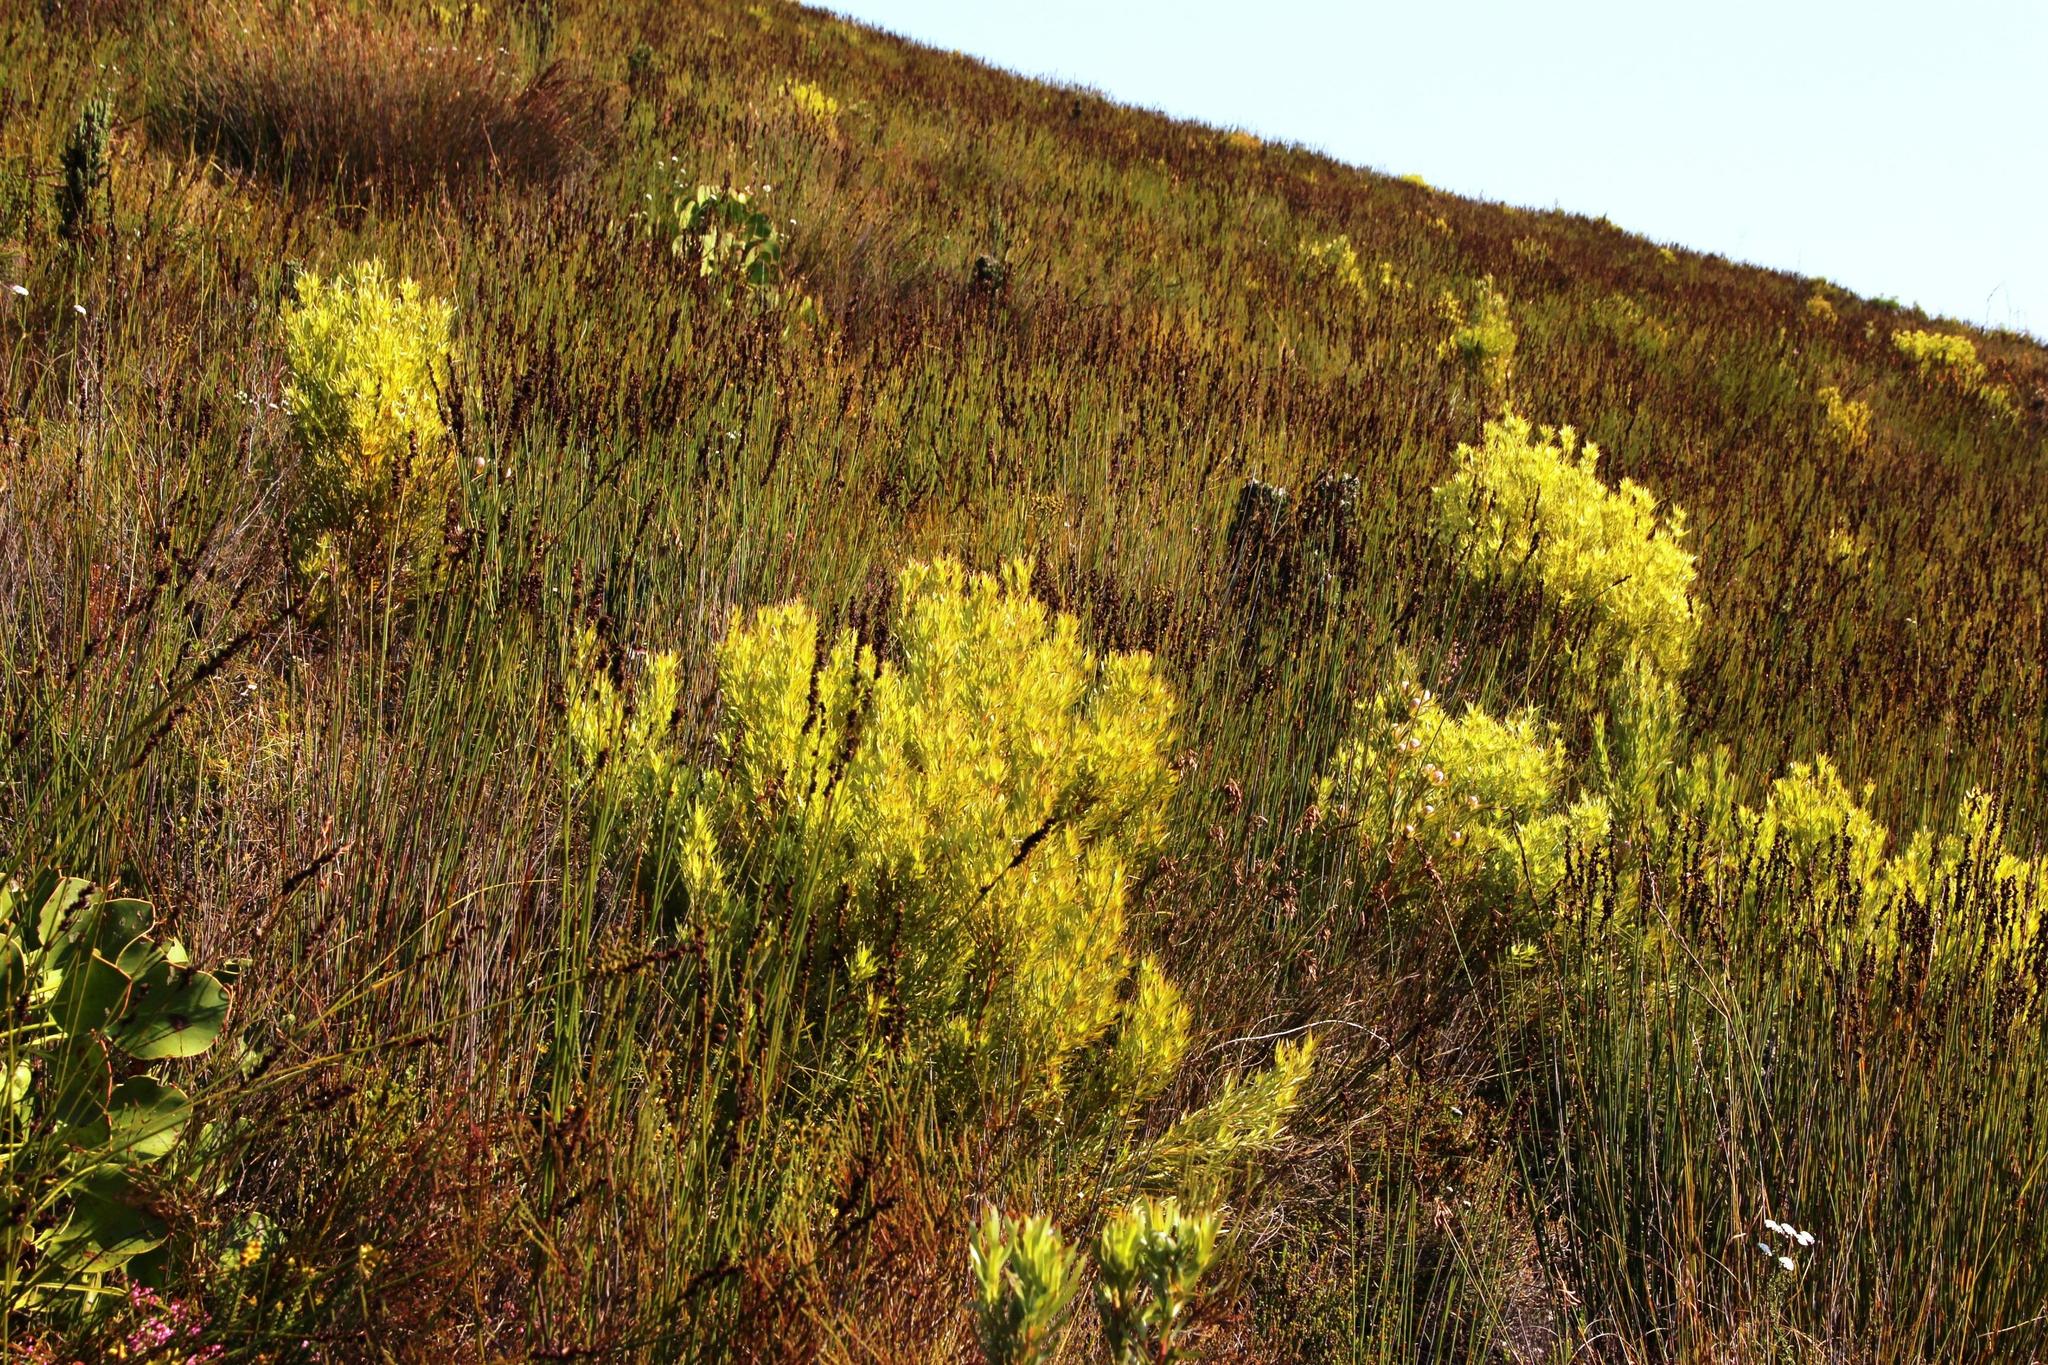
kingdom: Plantae
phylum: Tracheophyta
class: Magnoliopsida
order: Proteales
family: Proteaceae
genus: Leucadendron
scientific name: Leucadendron xanthoconus
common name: Sickle-leaf conebush
